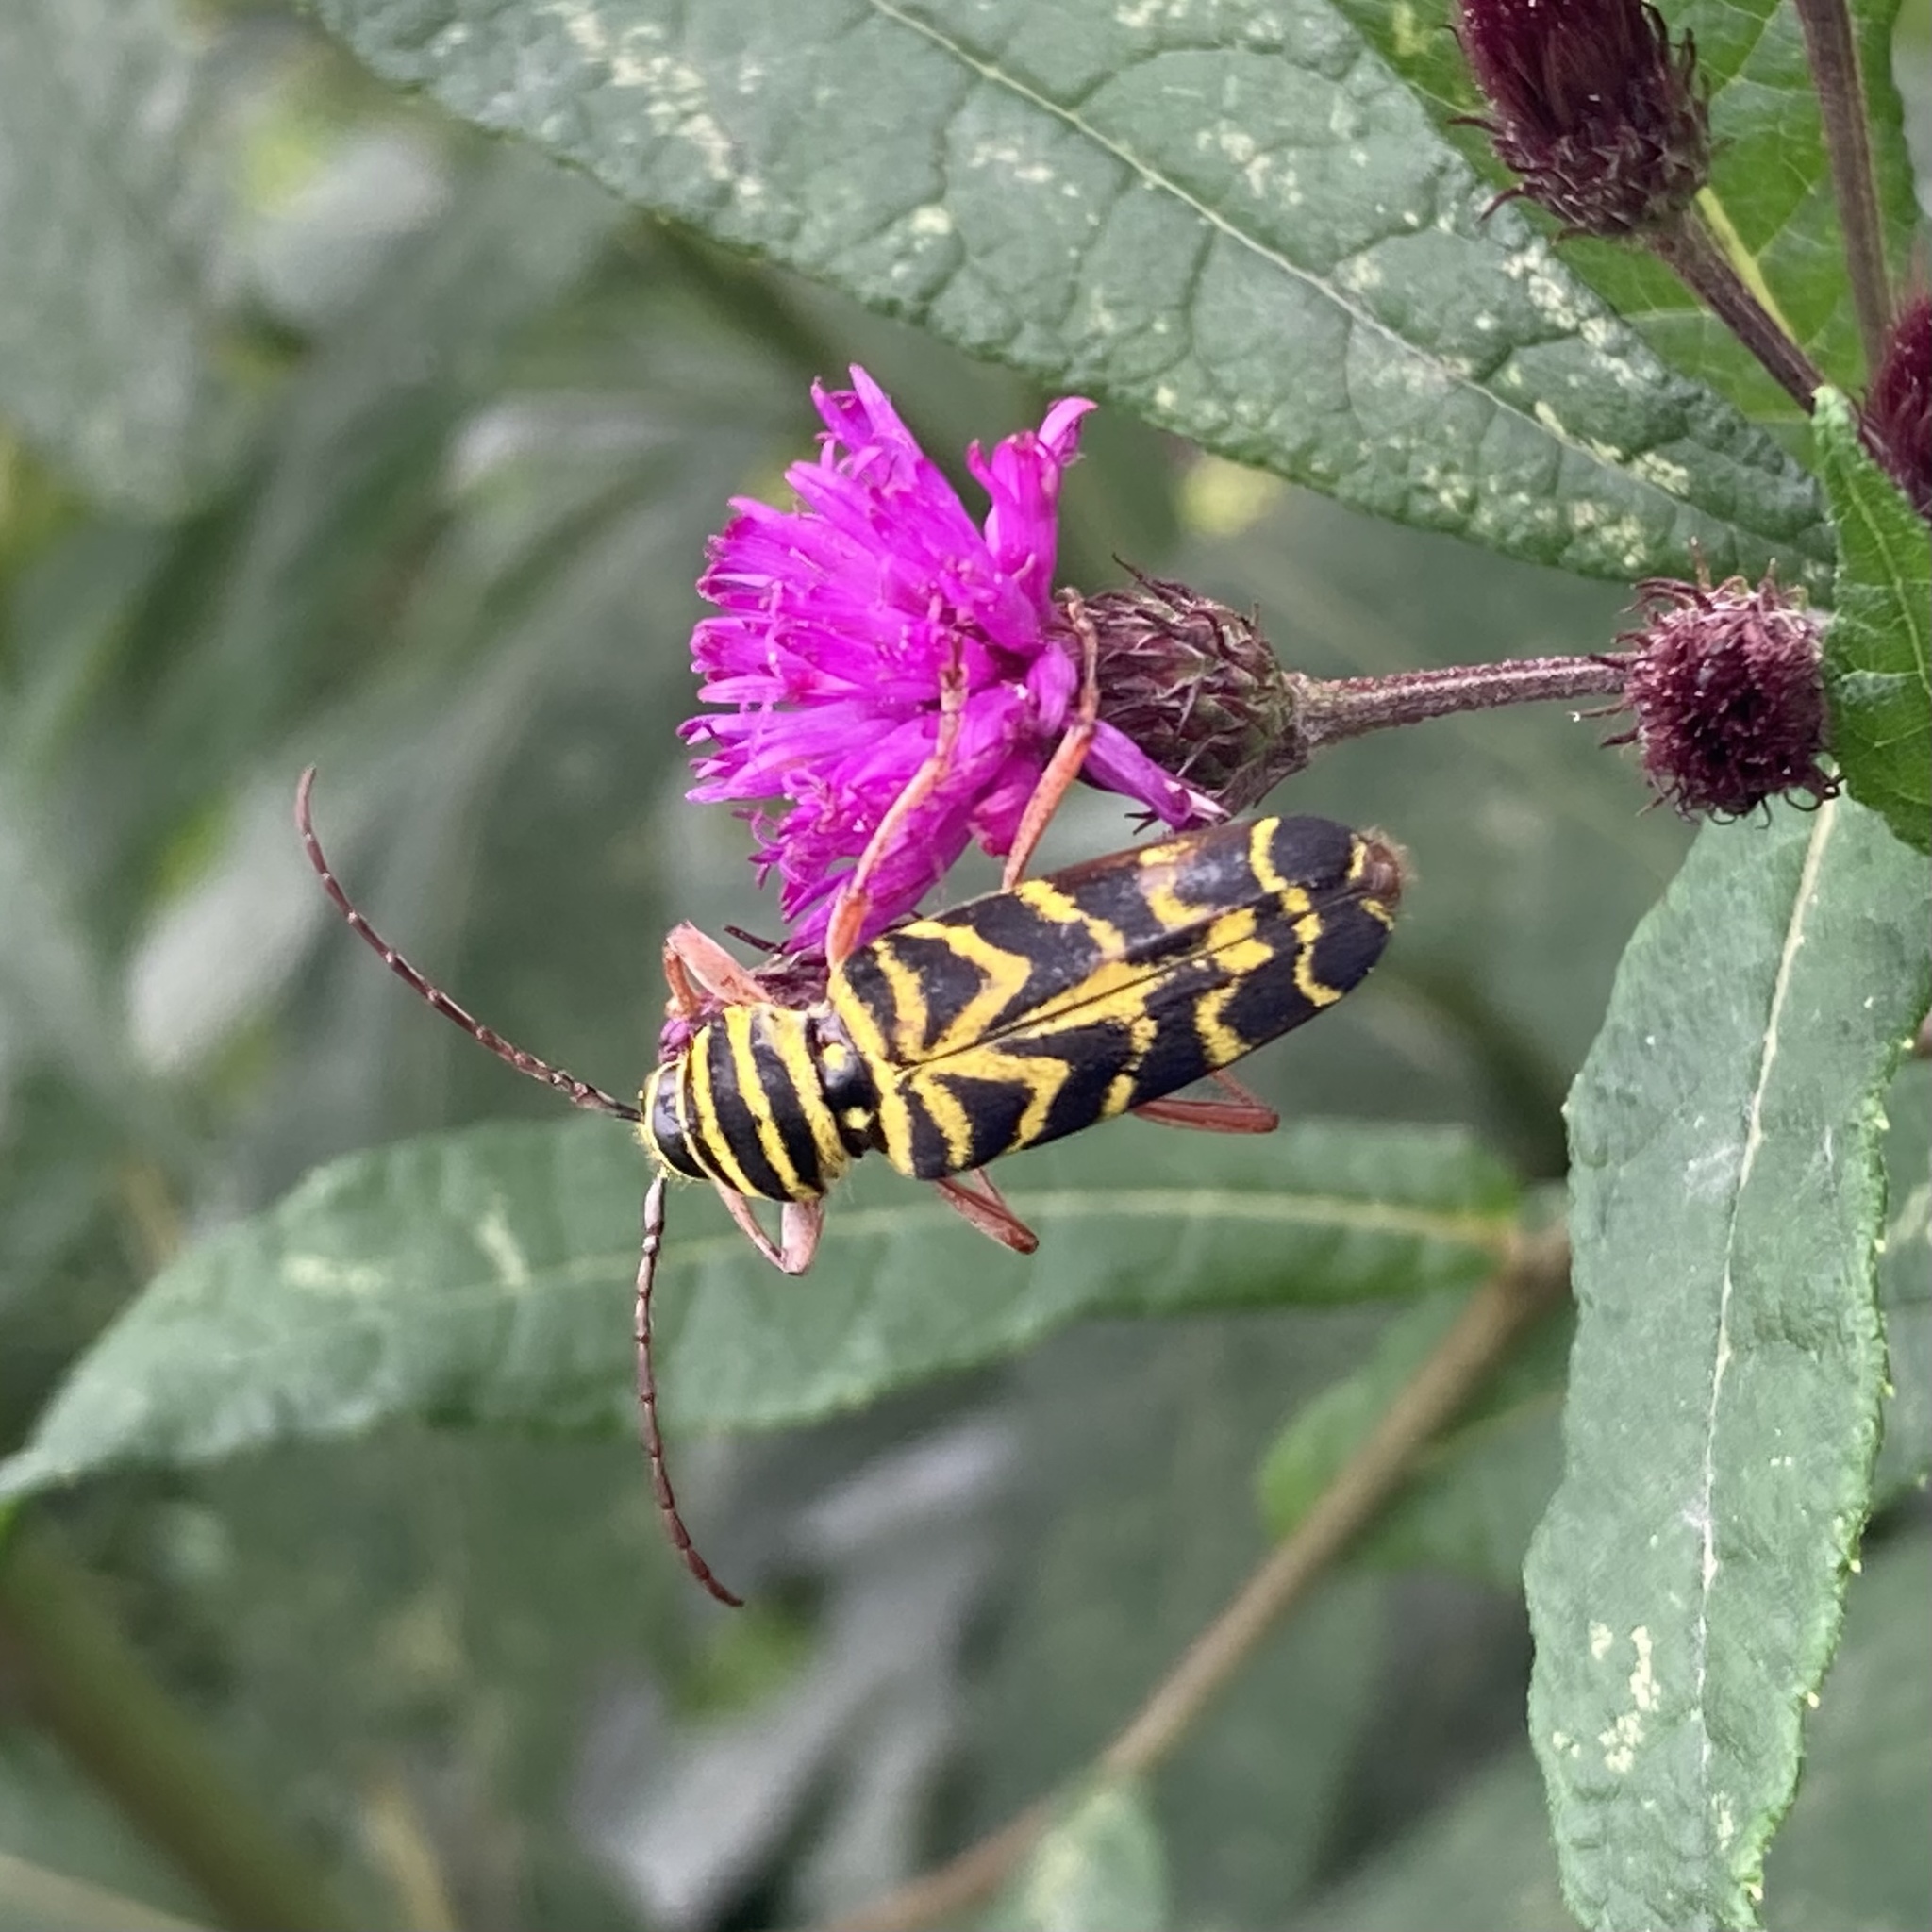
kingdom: Animalia
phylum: Arthropoda
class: Insecta
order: Coleoptera
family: Cerambycidae
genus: Megacyllene
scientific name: Megacyllene robiniae
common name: Locust borer
